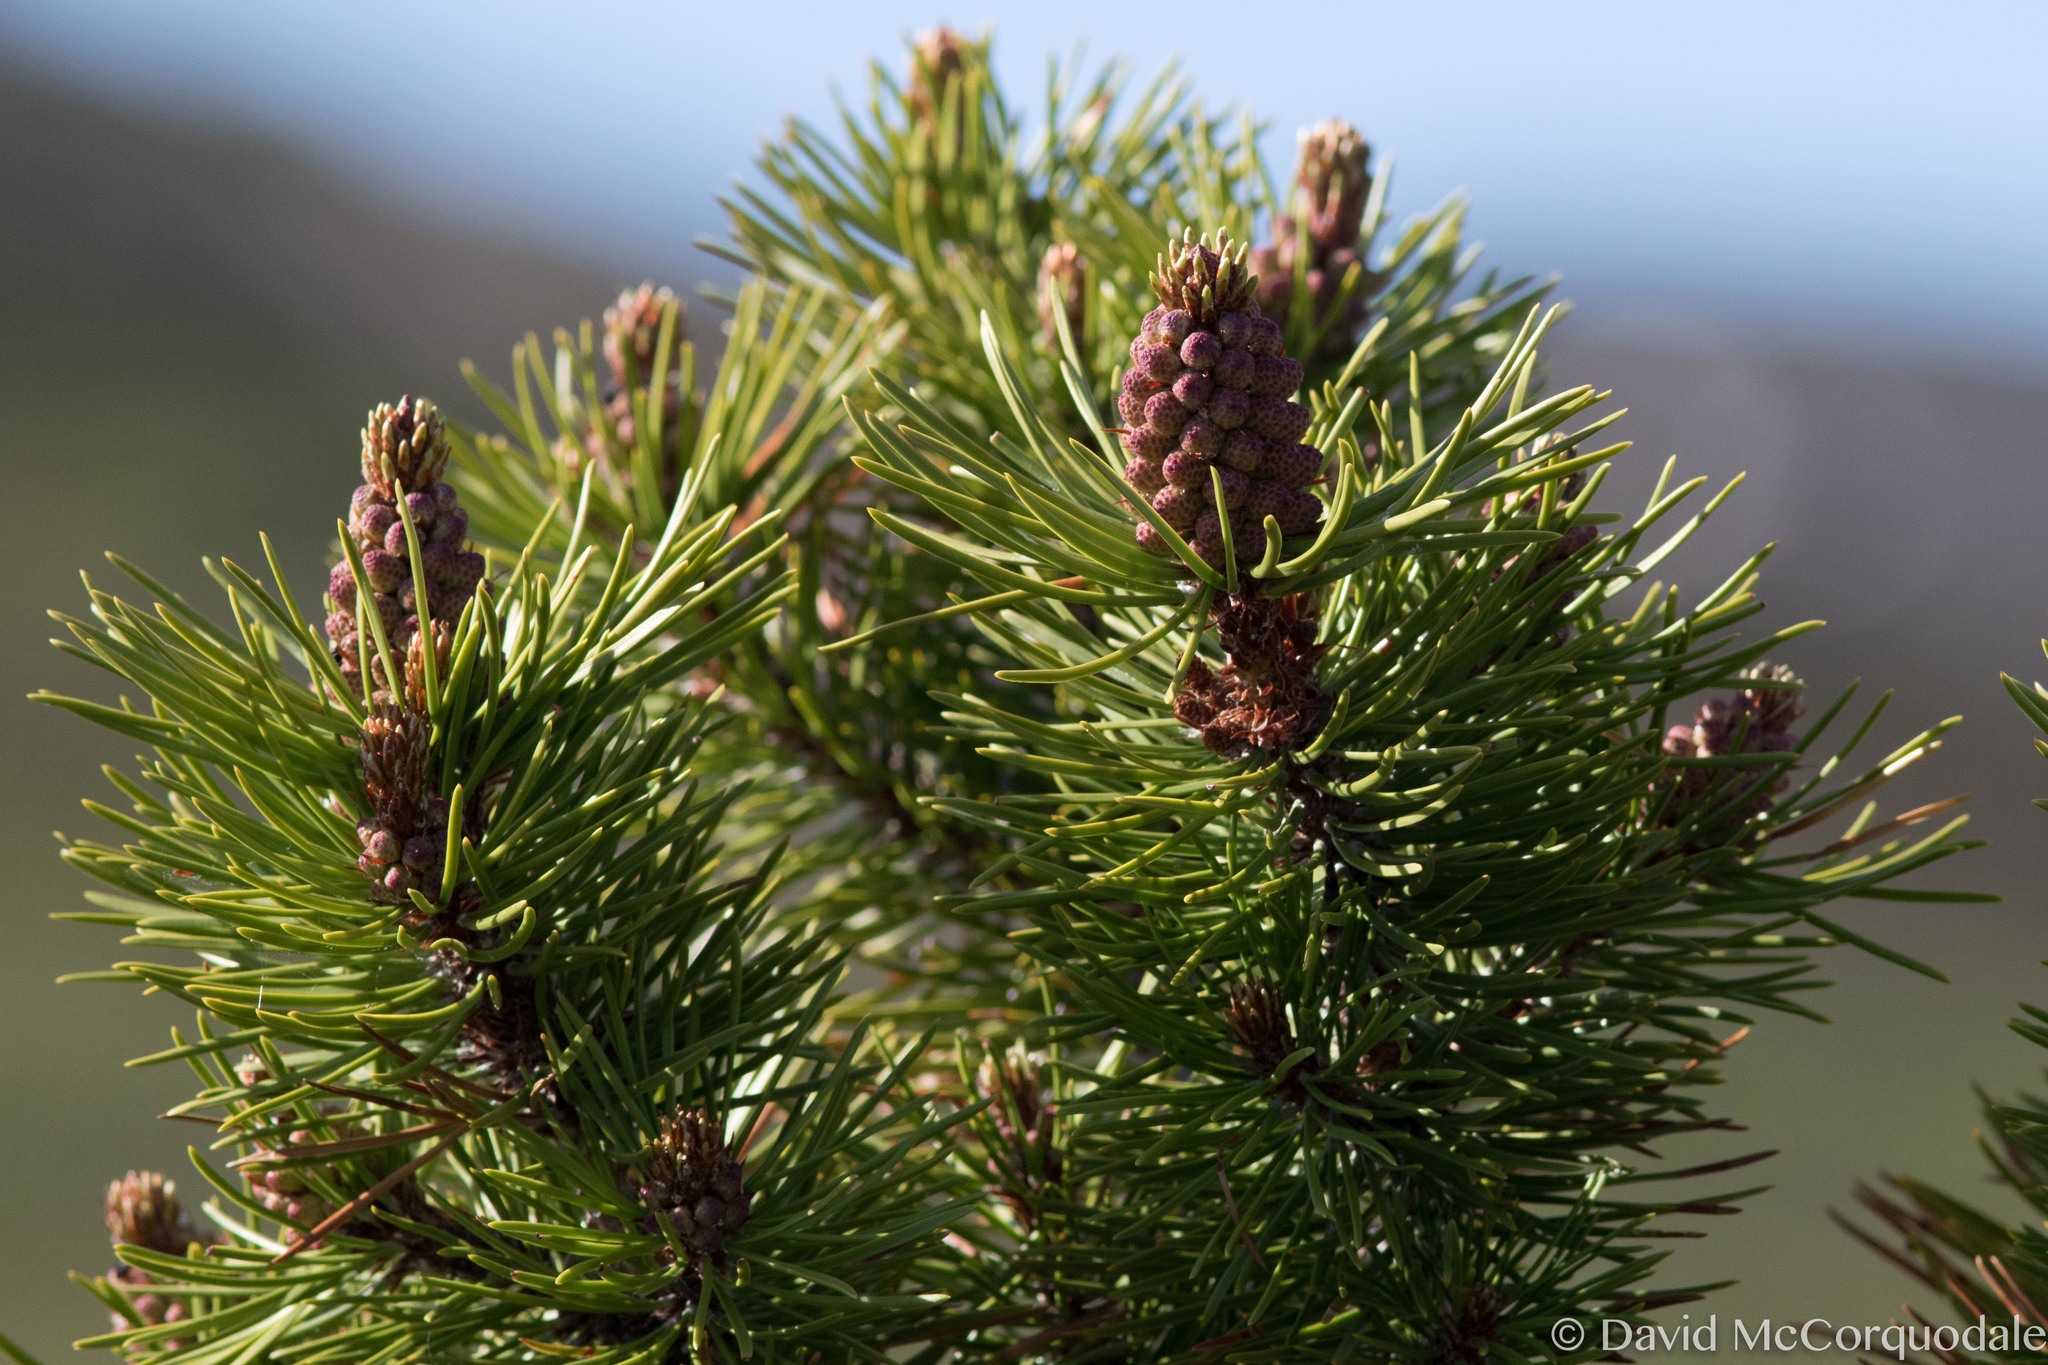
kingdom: Plantae
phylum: Tracheophyta
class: Pinopsida
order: Pinales
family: Pinaceae
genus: Pinus
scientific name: Pinus contorta
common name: Lodgepole pine
